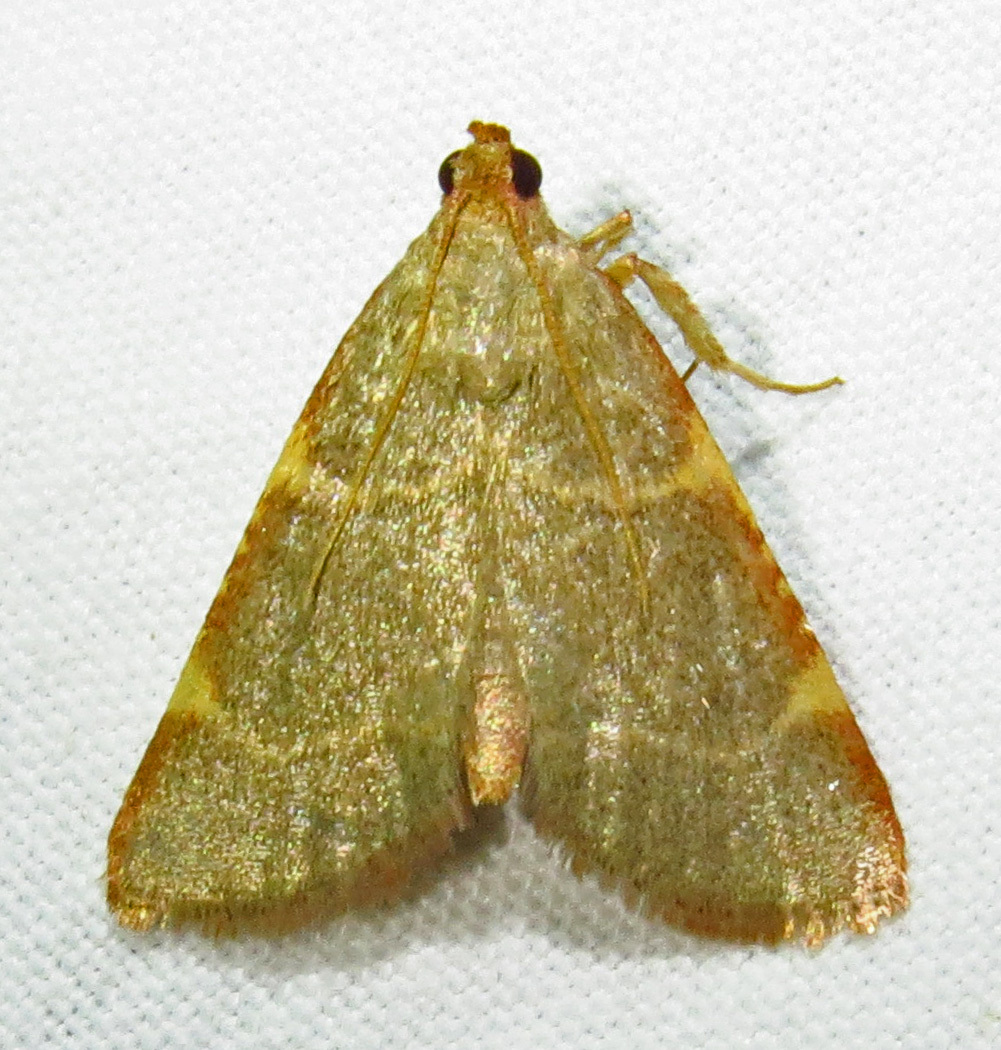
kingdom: Animalia
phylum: Arthropoda
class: Insecta
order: Lepidoptera
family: Pyralidae
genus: Hypsopygia
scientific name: Hypsopygia binodulalis
